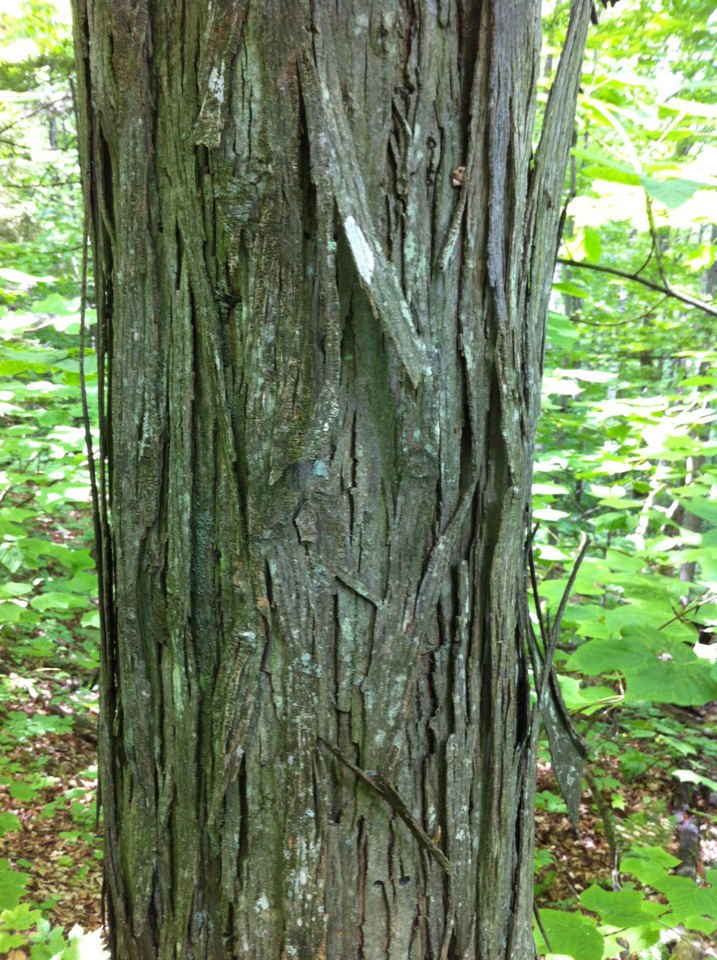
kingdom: Plantae
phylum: Tracheophyta
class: Magnoliopsida
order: Fagales
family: Juglandaceae
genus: Carya
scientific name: Carya ovata
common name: Shagbark hickory
